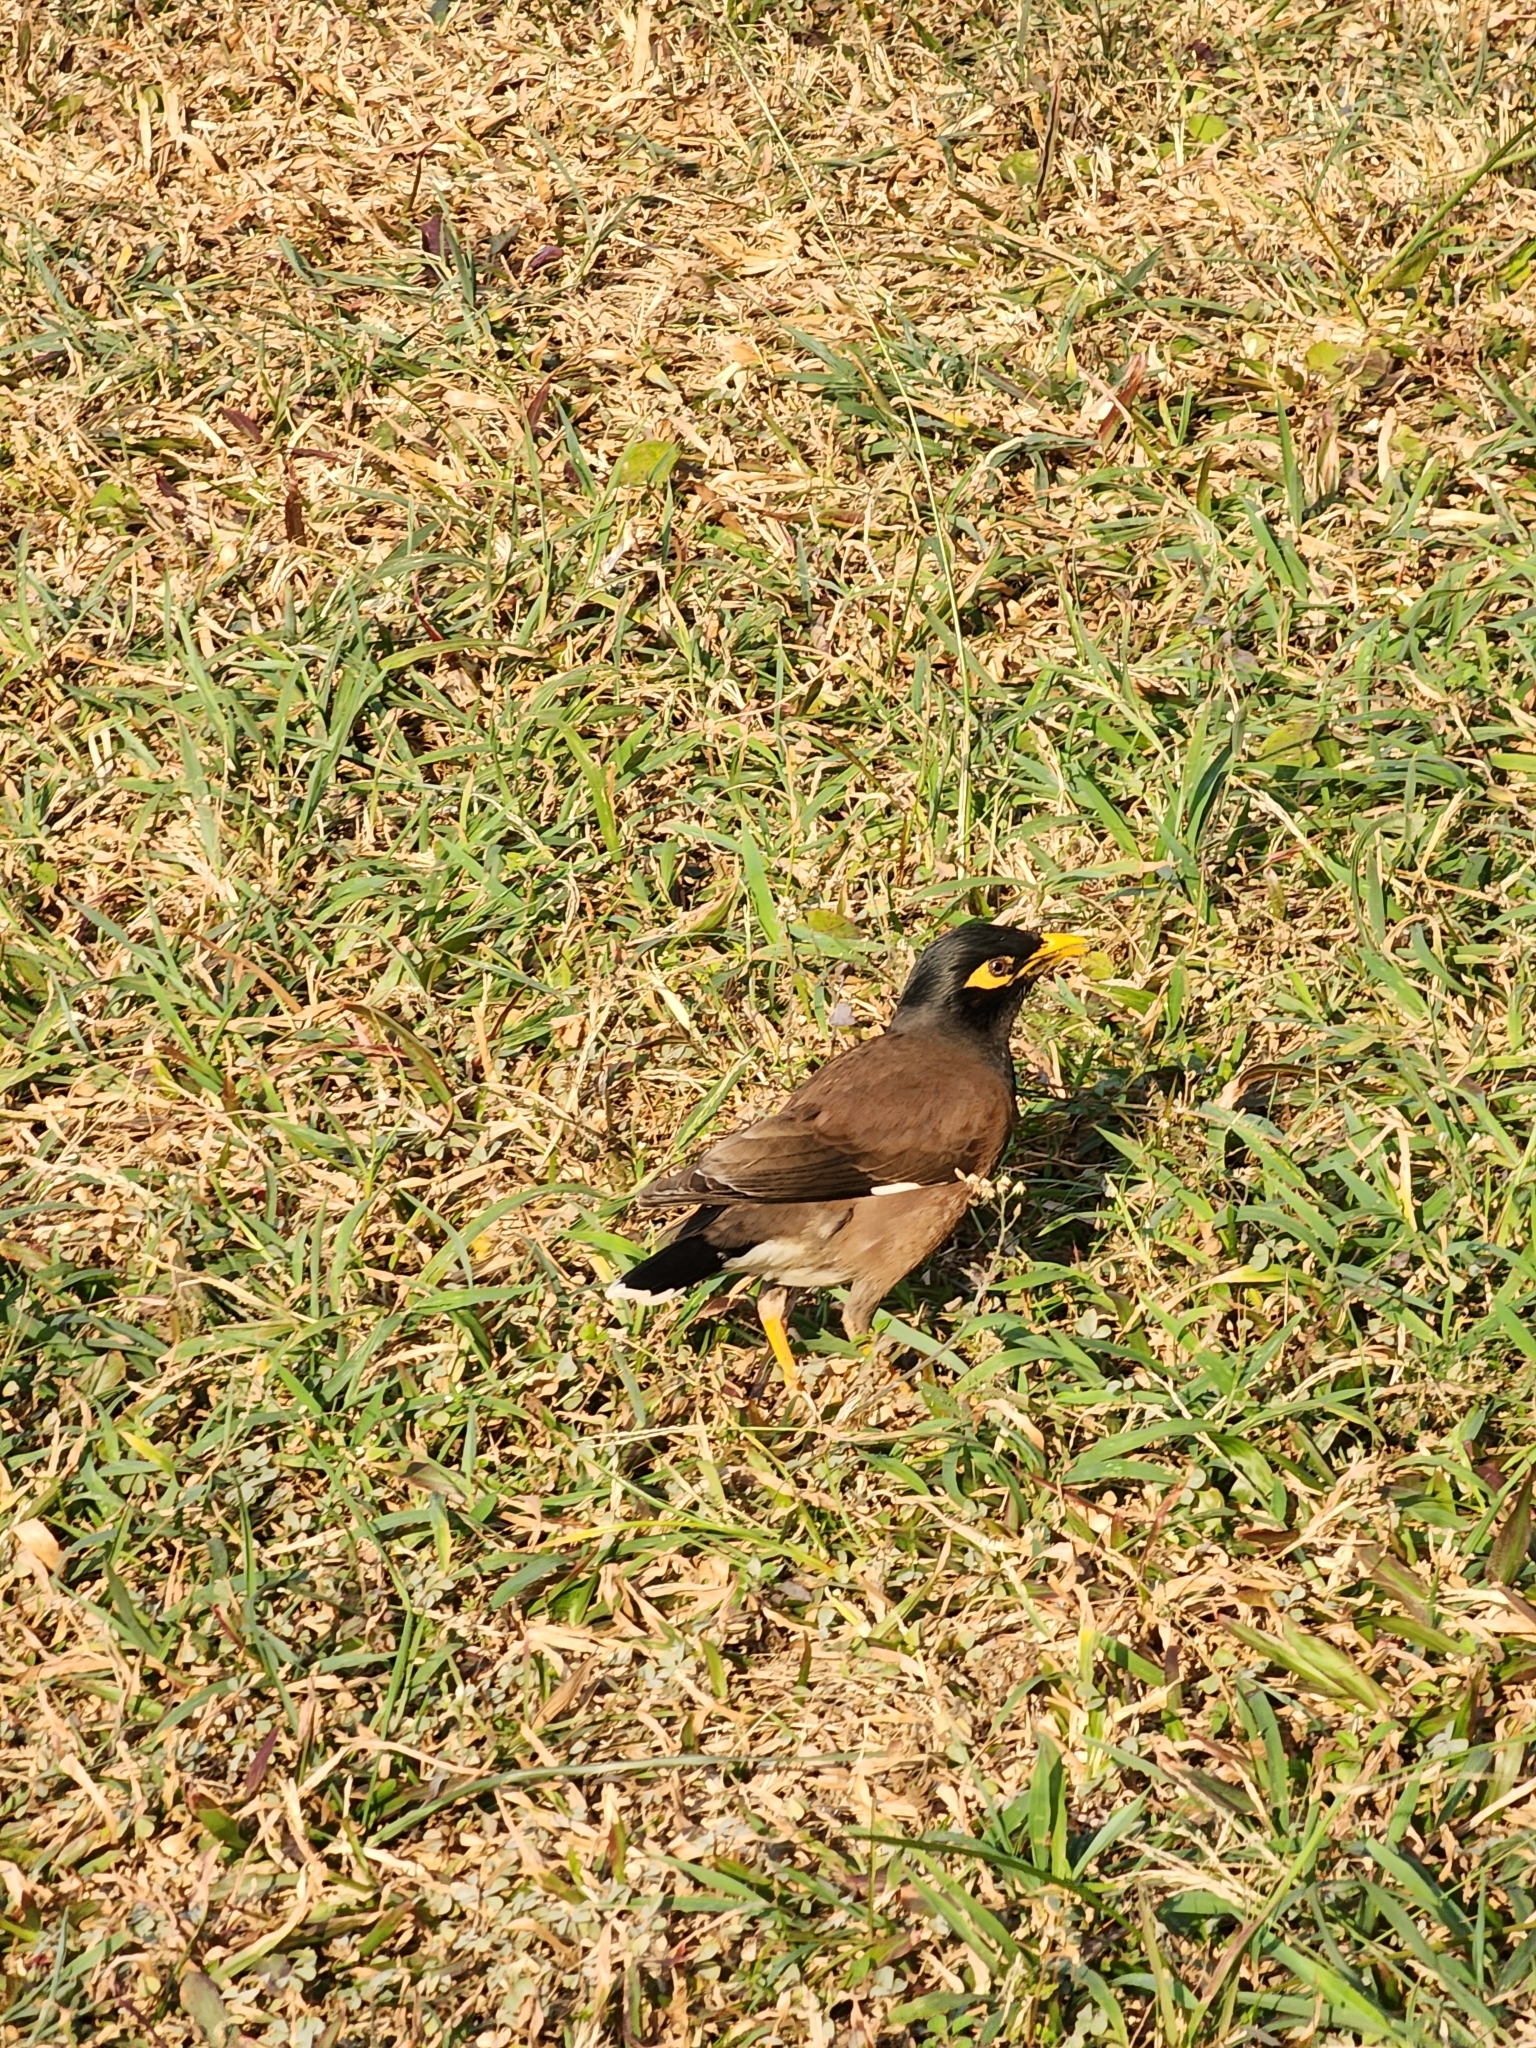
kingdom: Animalia
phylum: Chordata
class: Aves
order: Passeriformes
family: Sturnidae
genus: Acridotheres
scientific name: Acridotheres tristis
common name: Common myna
